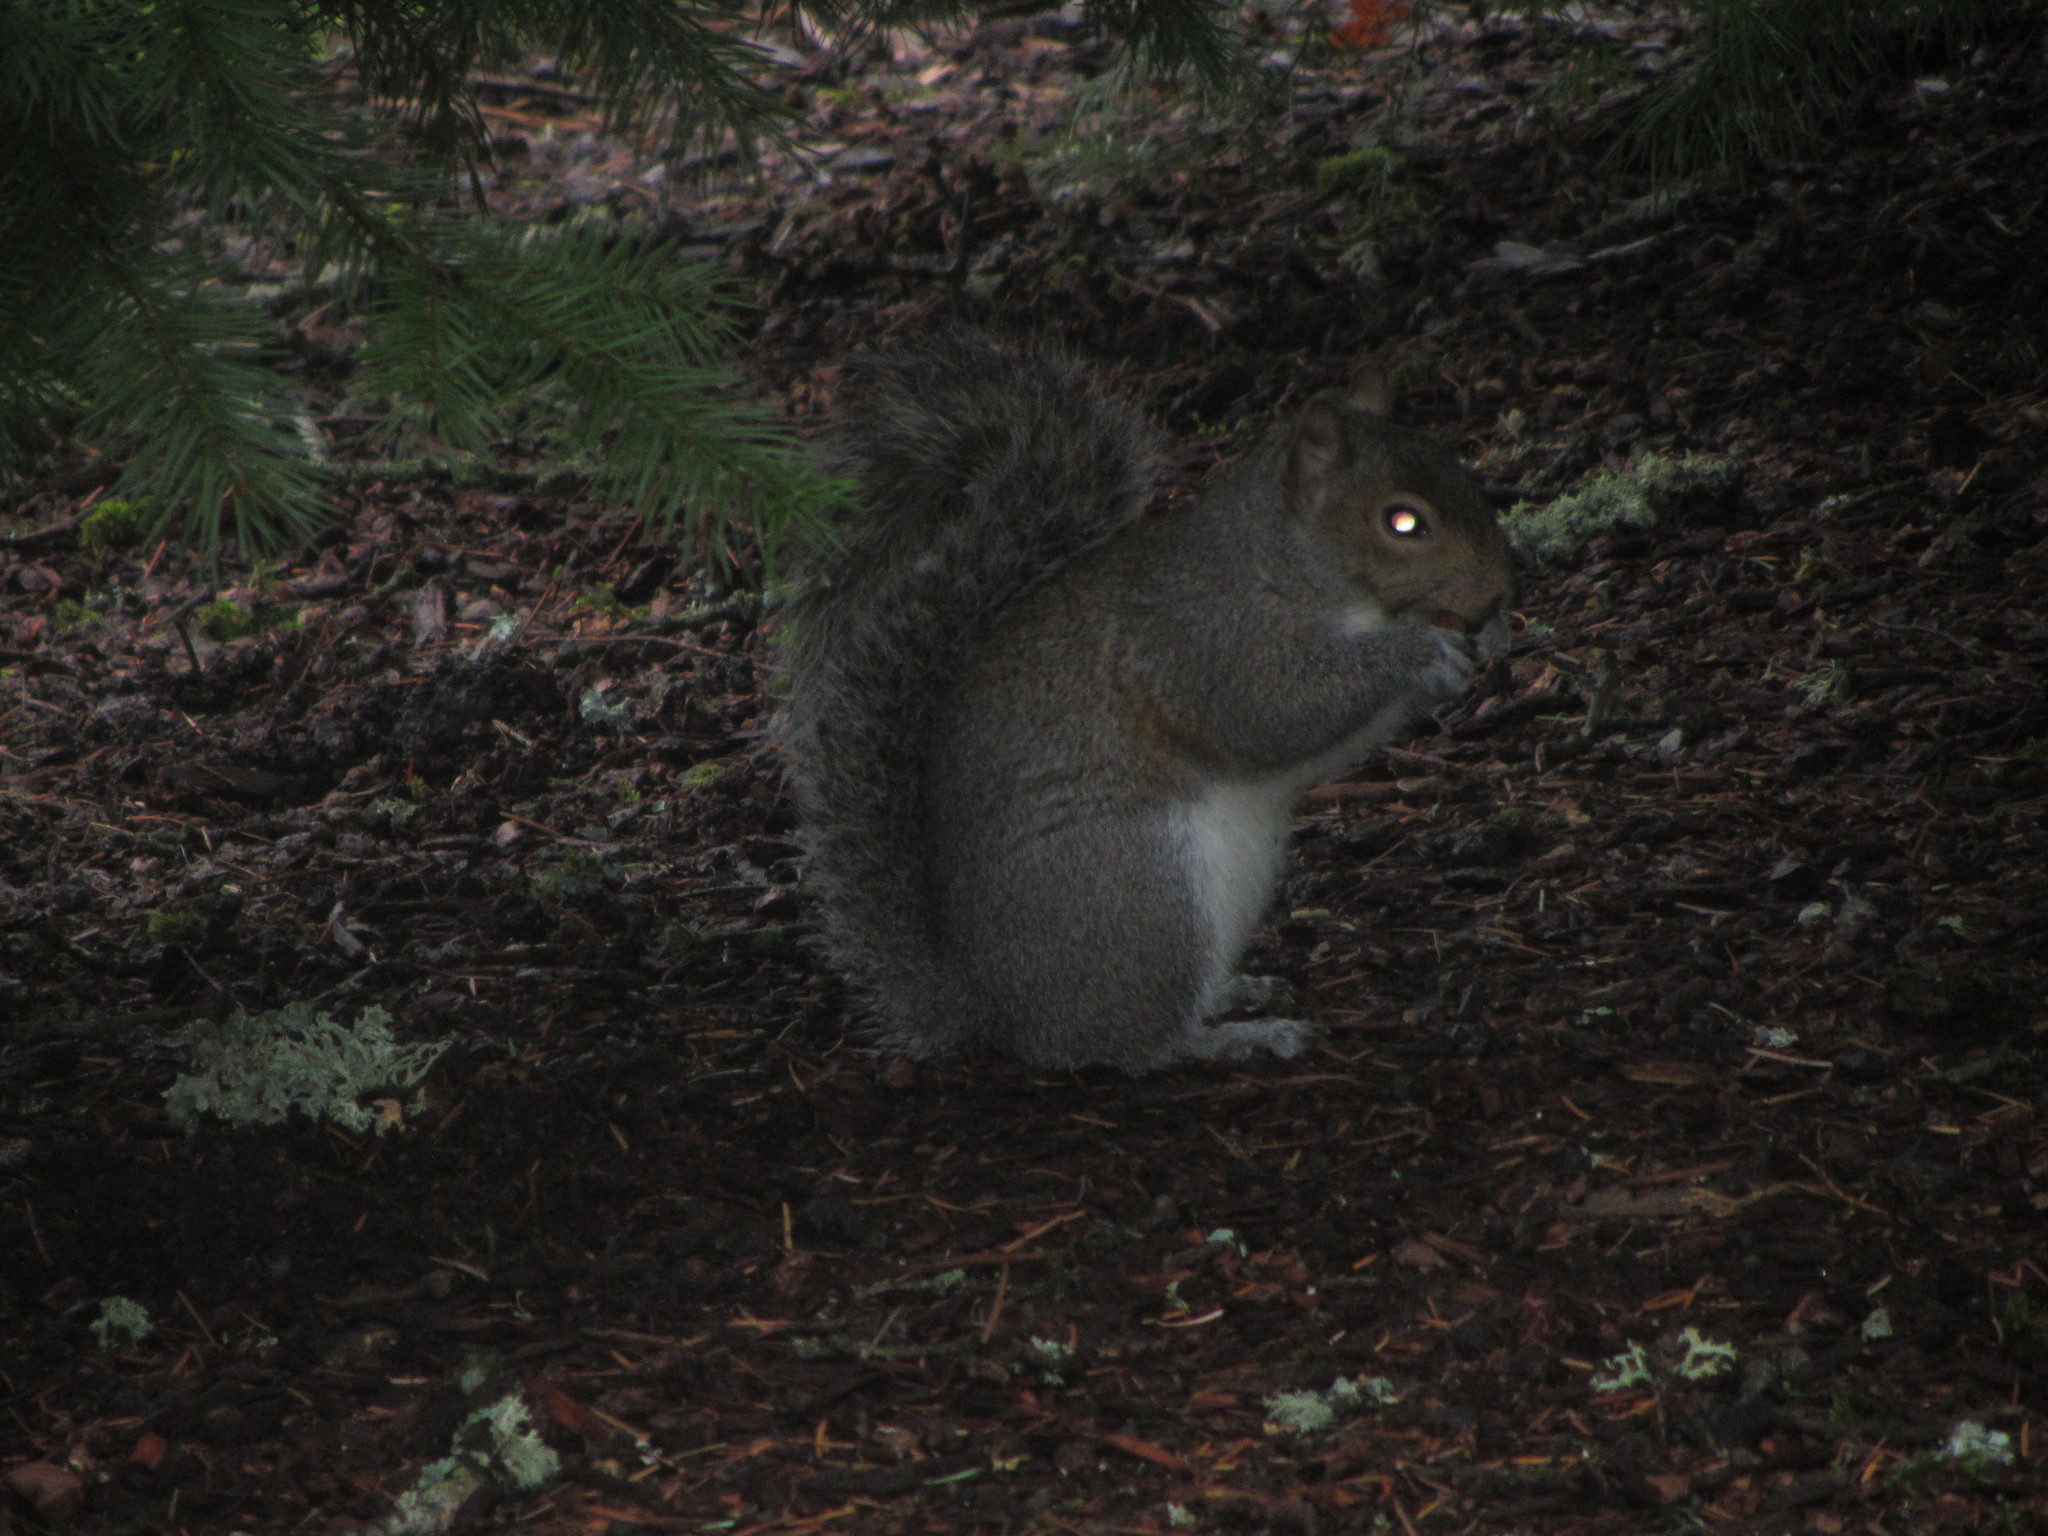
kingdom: Animalia
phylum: Chordata
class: Mammalia
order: Rodentia
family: Sciuridae
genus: Sciurus
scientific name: Sciurus carolinensis
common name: Eastern gray squirrel
